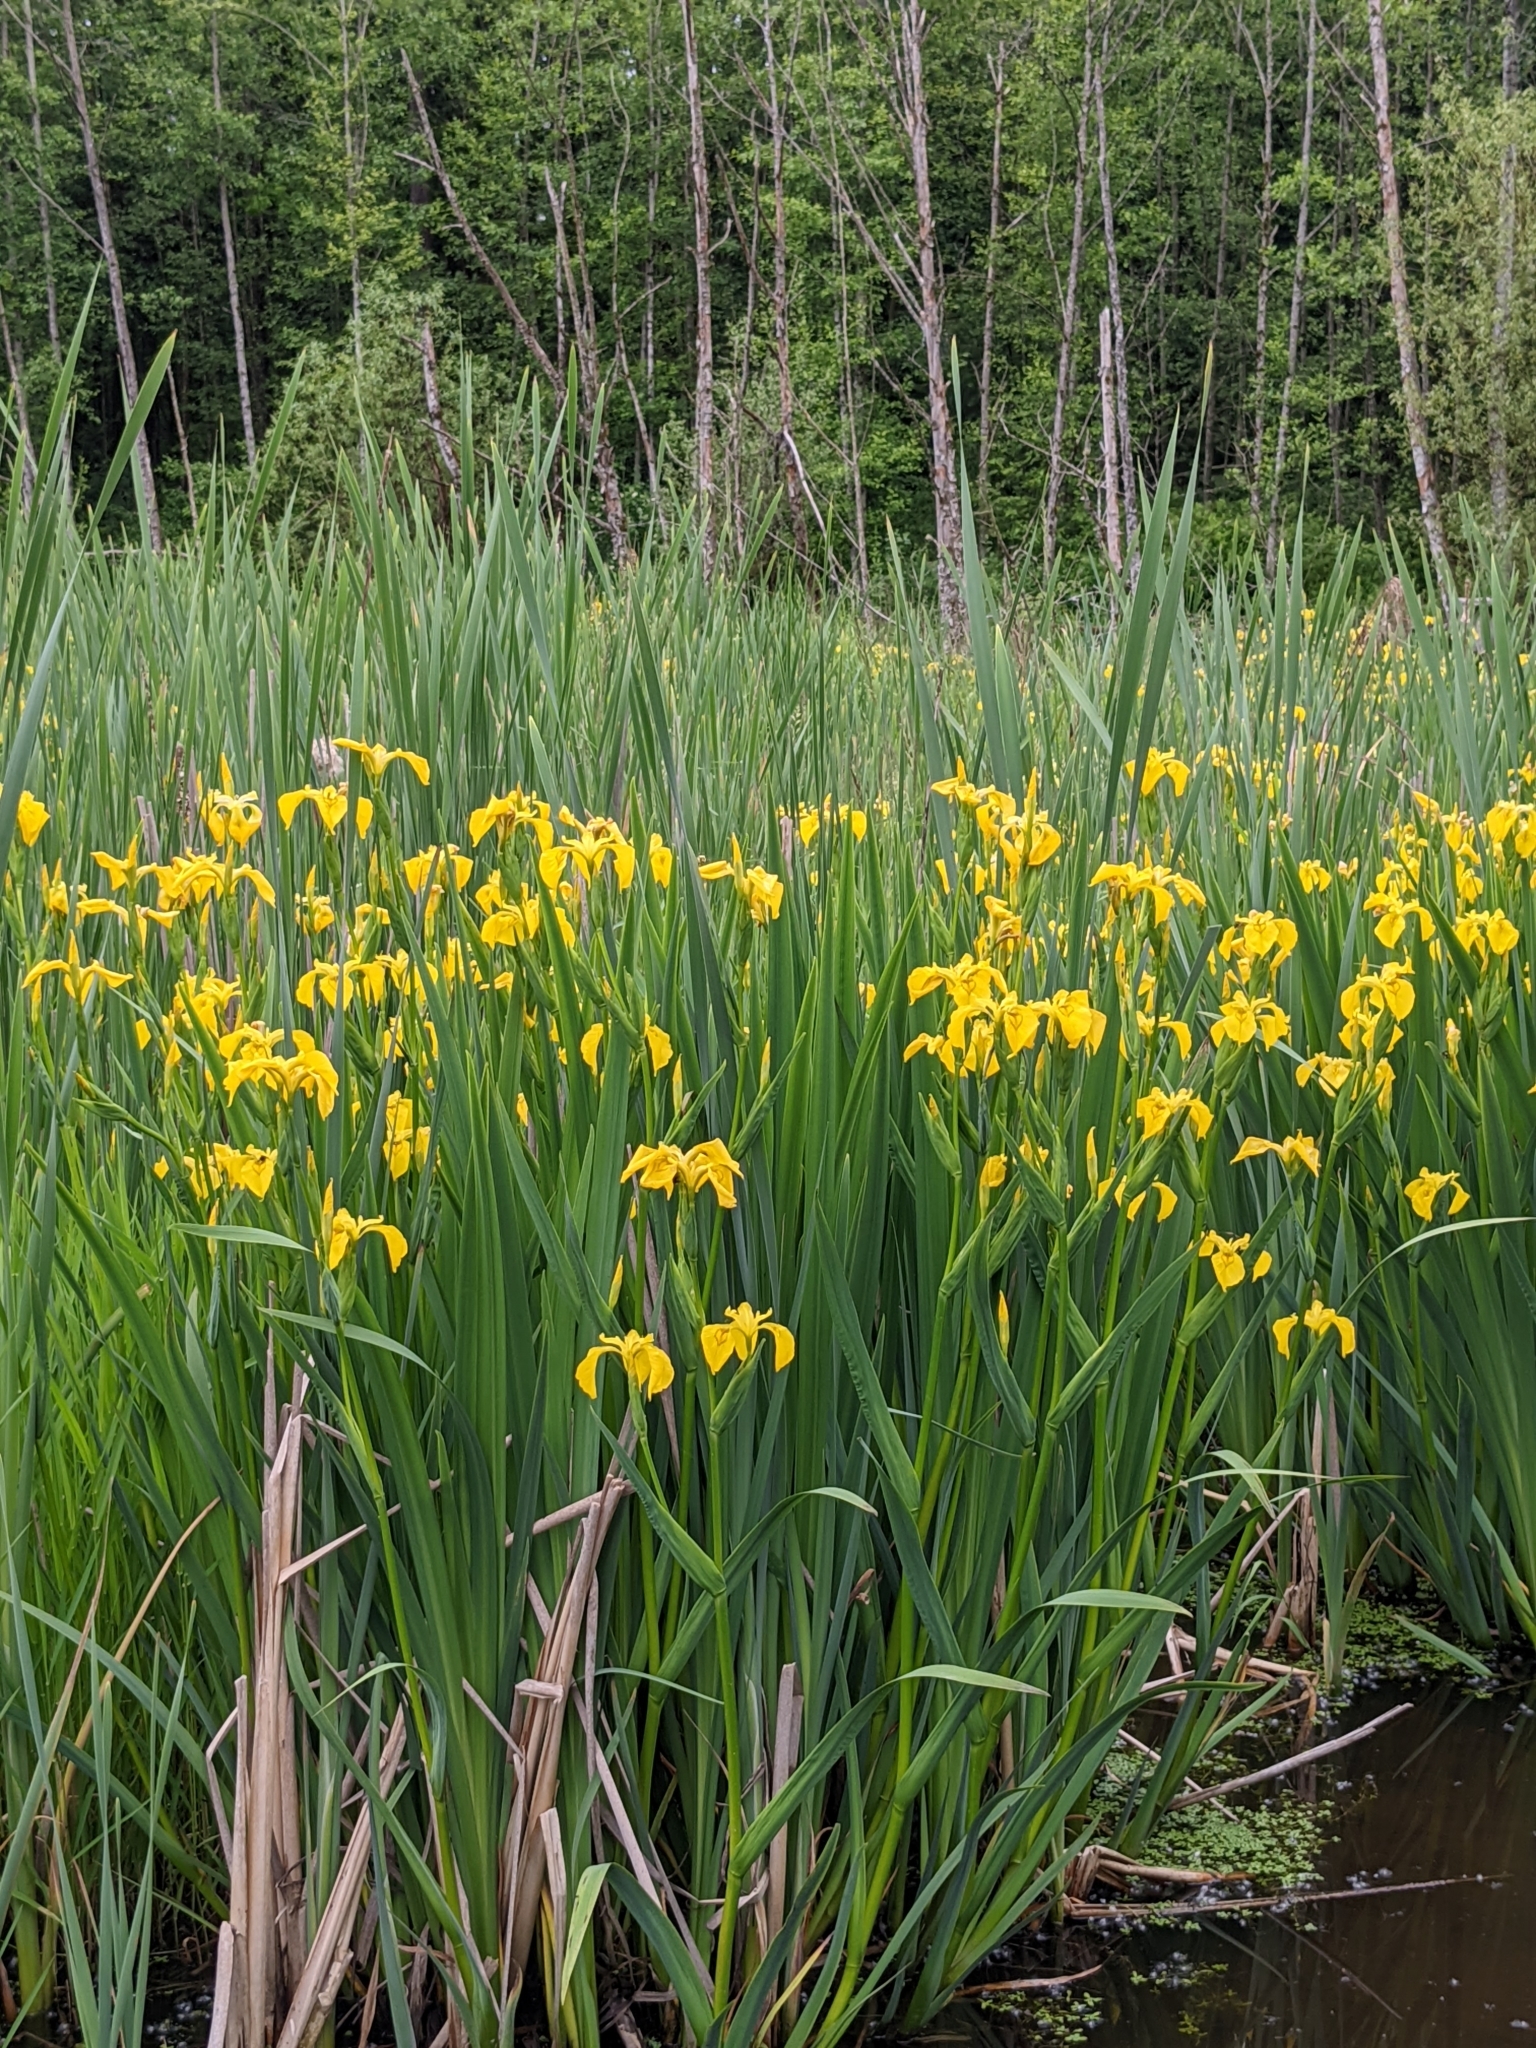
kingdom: Plantae
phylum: Tracheophyta
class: Liliopsida
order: Asparagales
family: Iridaceae
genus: Iris
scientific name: Iris pseudacorus
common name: Yellow flag
